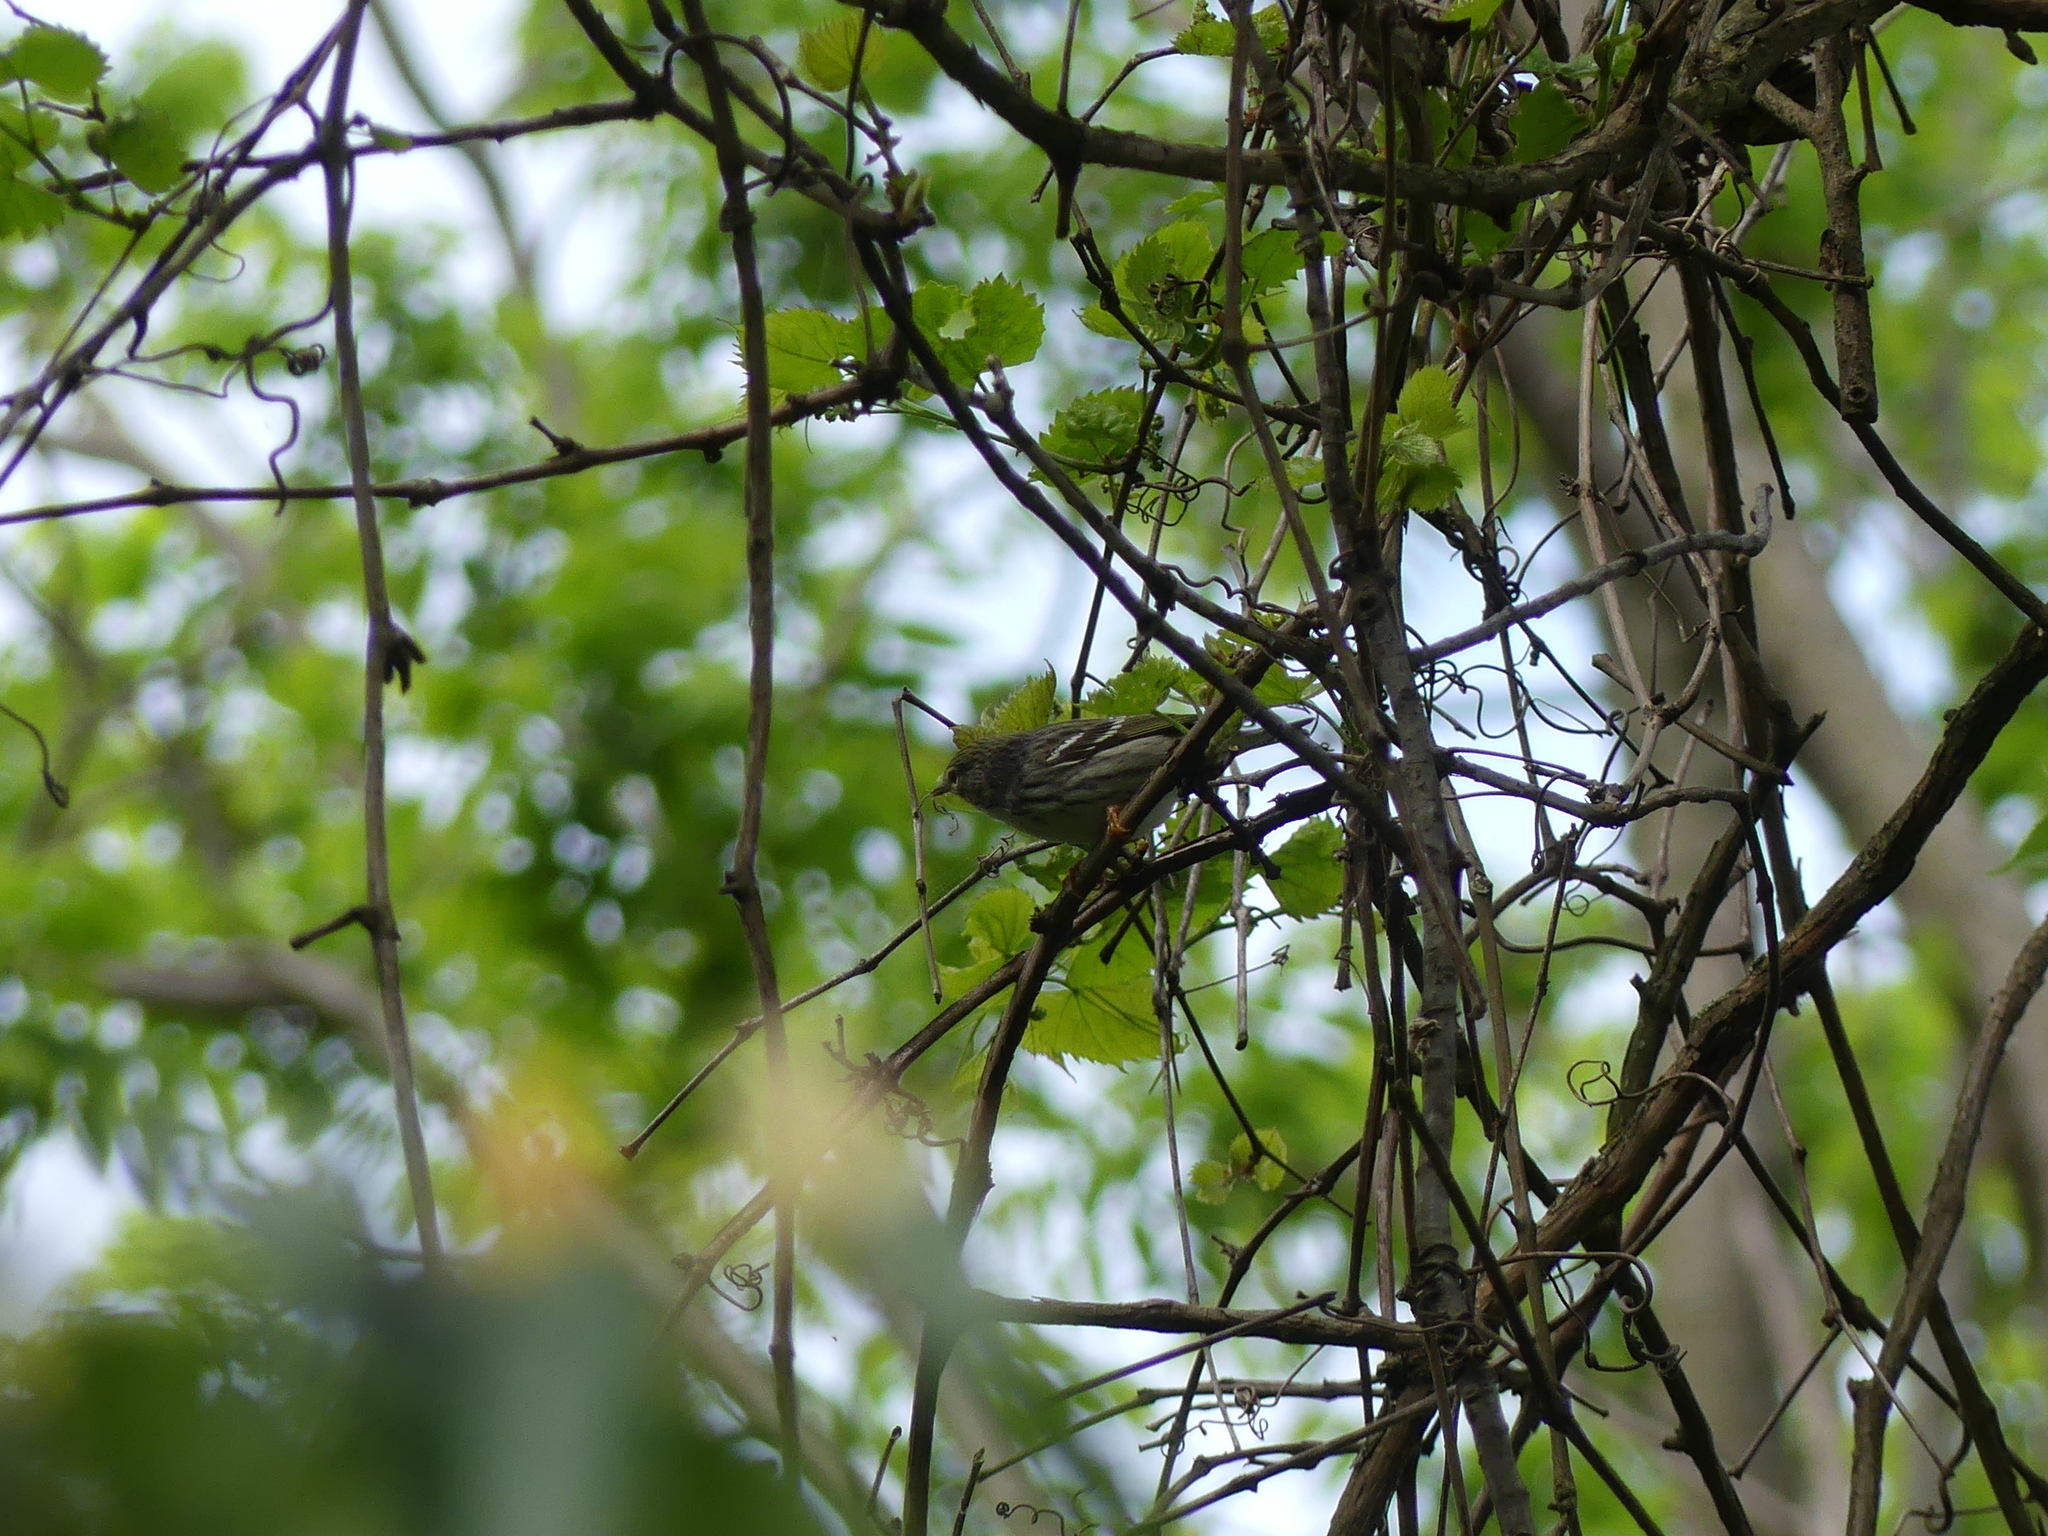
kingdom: Animalia
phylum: Chordata
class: Aves
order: Passeriformes
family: Parulidae
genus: Setophaga
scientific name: Setophaga striata
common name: Blackpoll warbler
